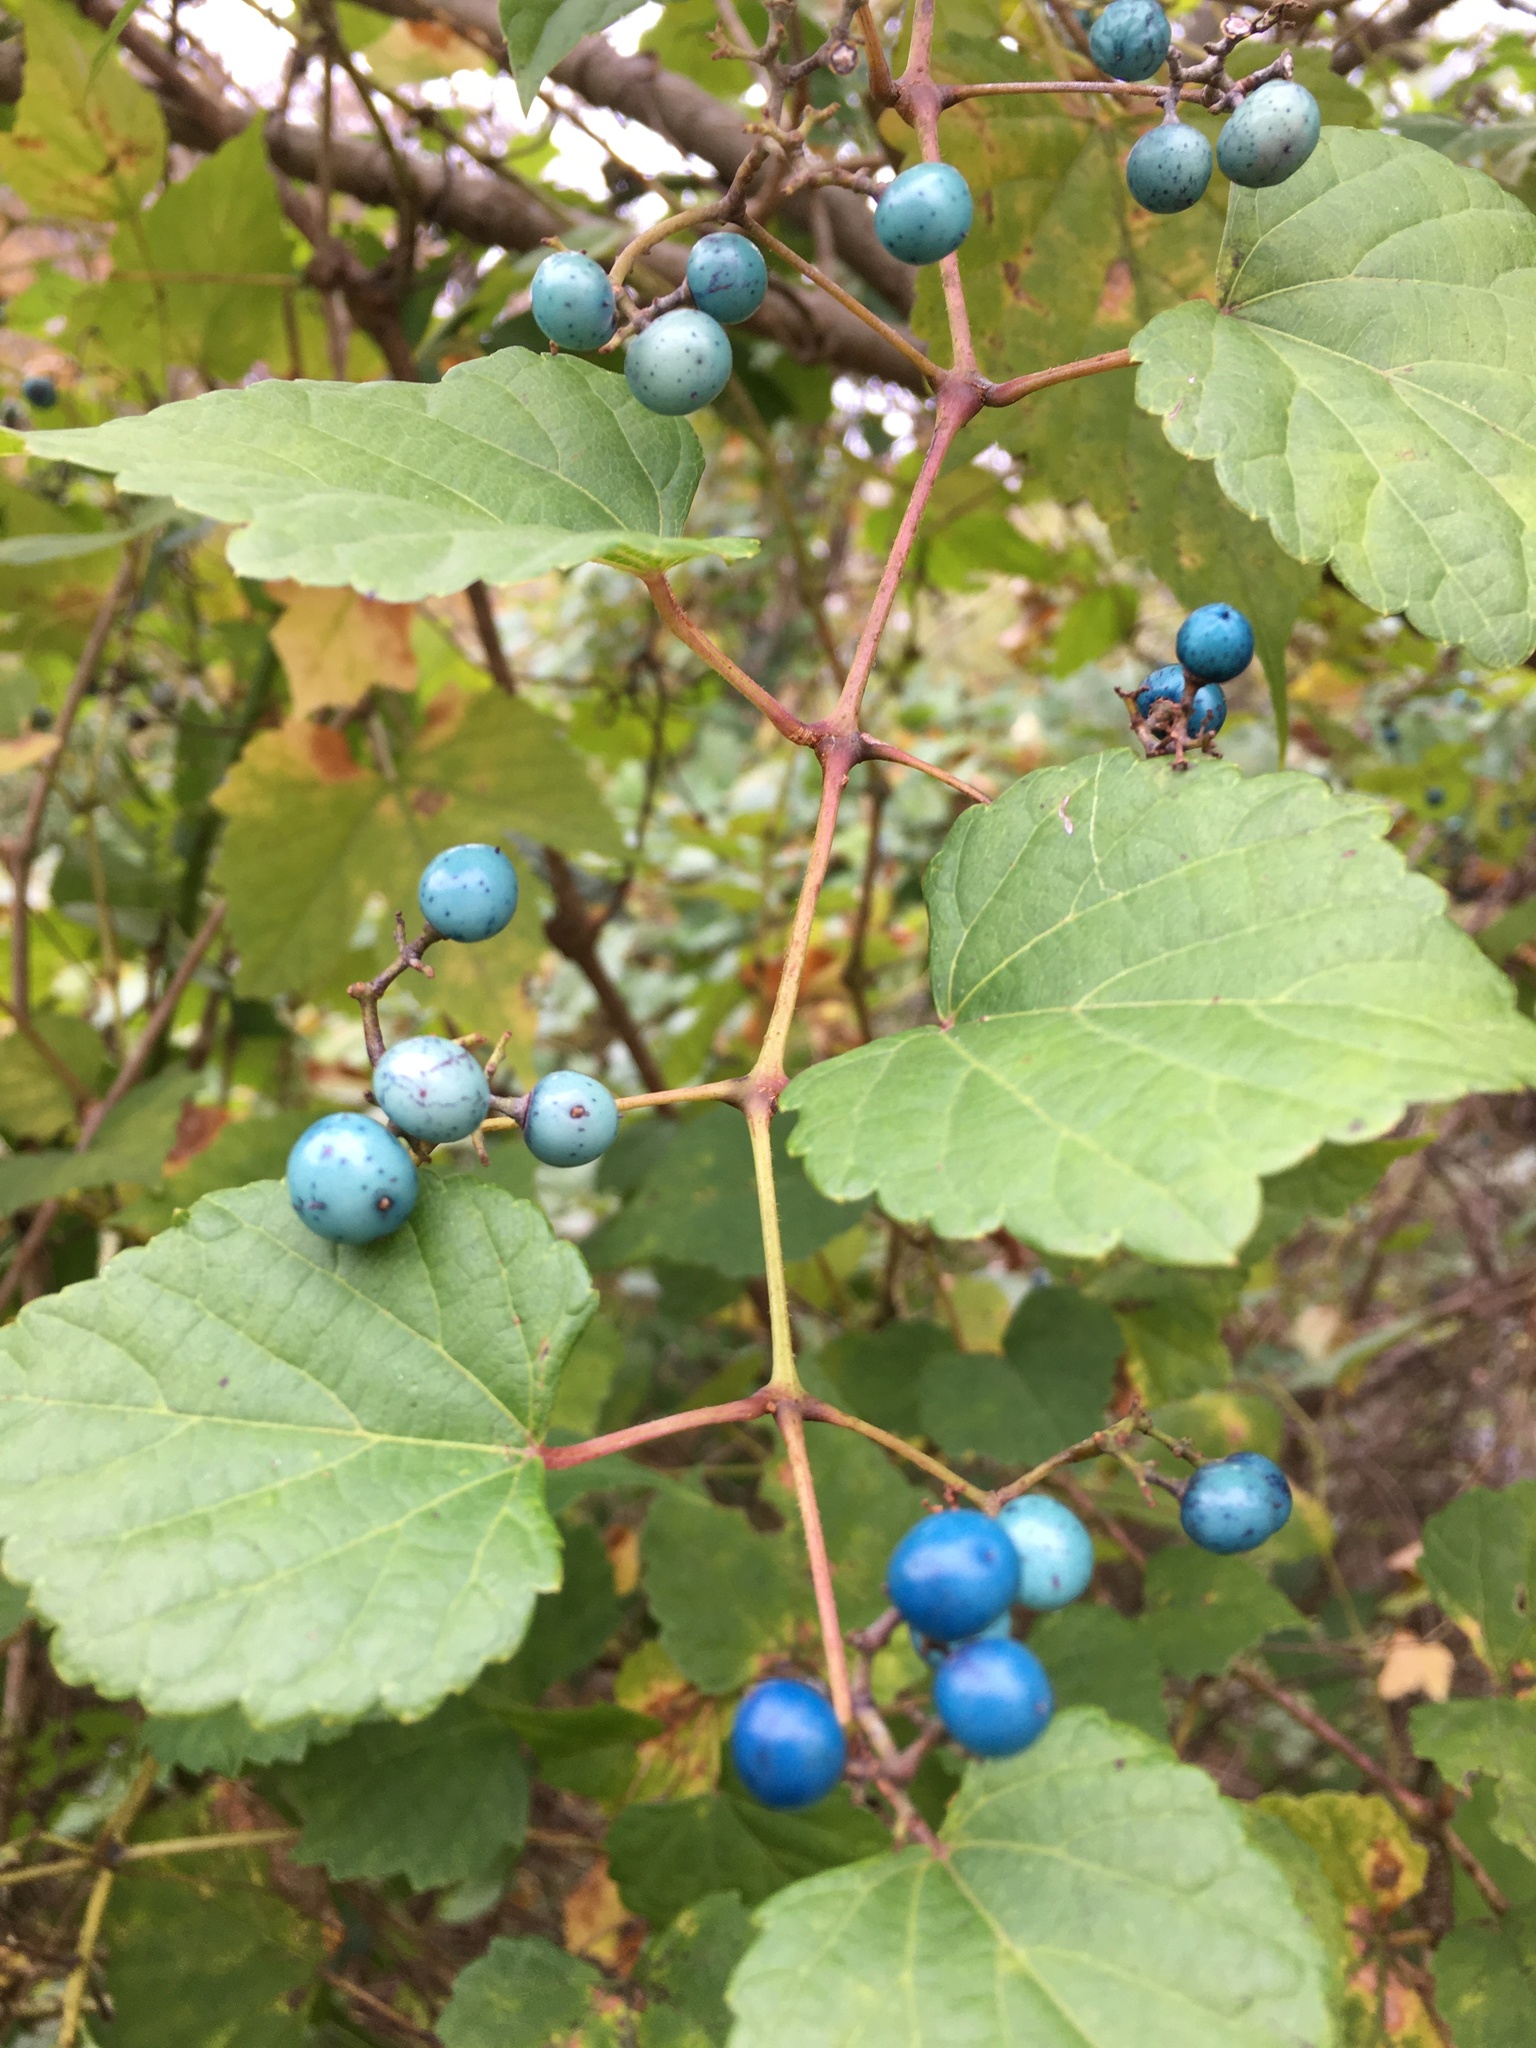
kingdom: Plantae
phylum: Tracheophyta
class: Magnoliopsida
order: Vitales
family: Vitaceae
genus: Ampelopsis
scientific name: Ampelopsis glandulosa
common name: Amur peppervine
